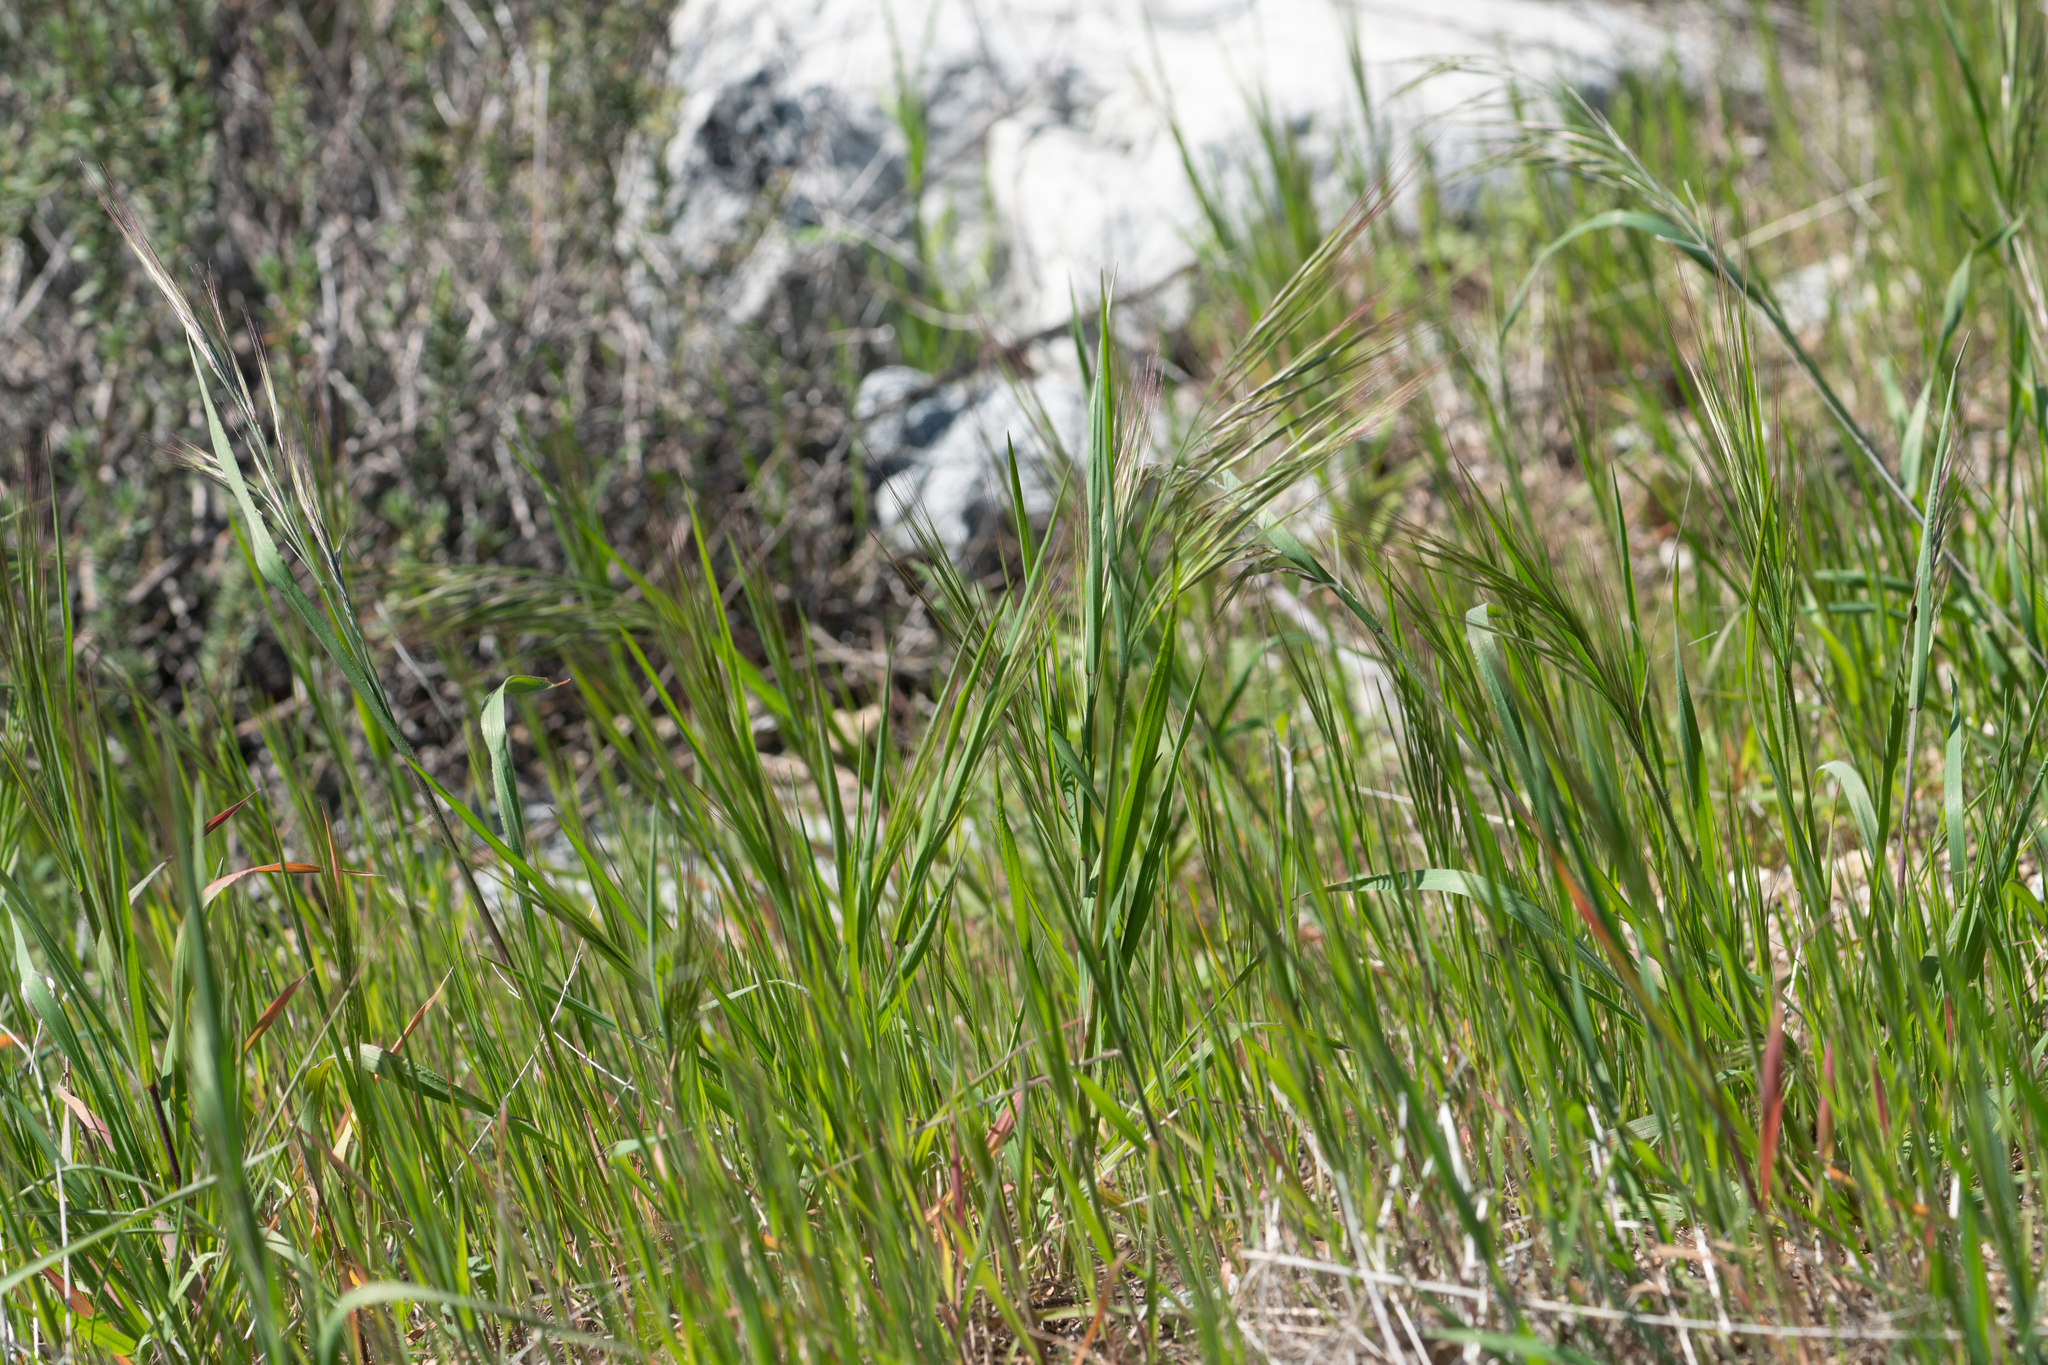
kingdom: Plantae
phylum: Tracheophyta
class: Liliopsida
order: Poales
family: Poaceae
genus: Bromus
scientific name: Bromus diandrus
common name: Ripgut brome
